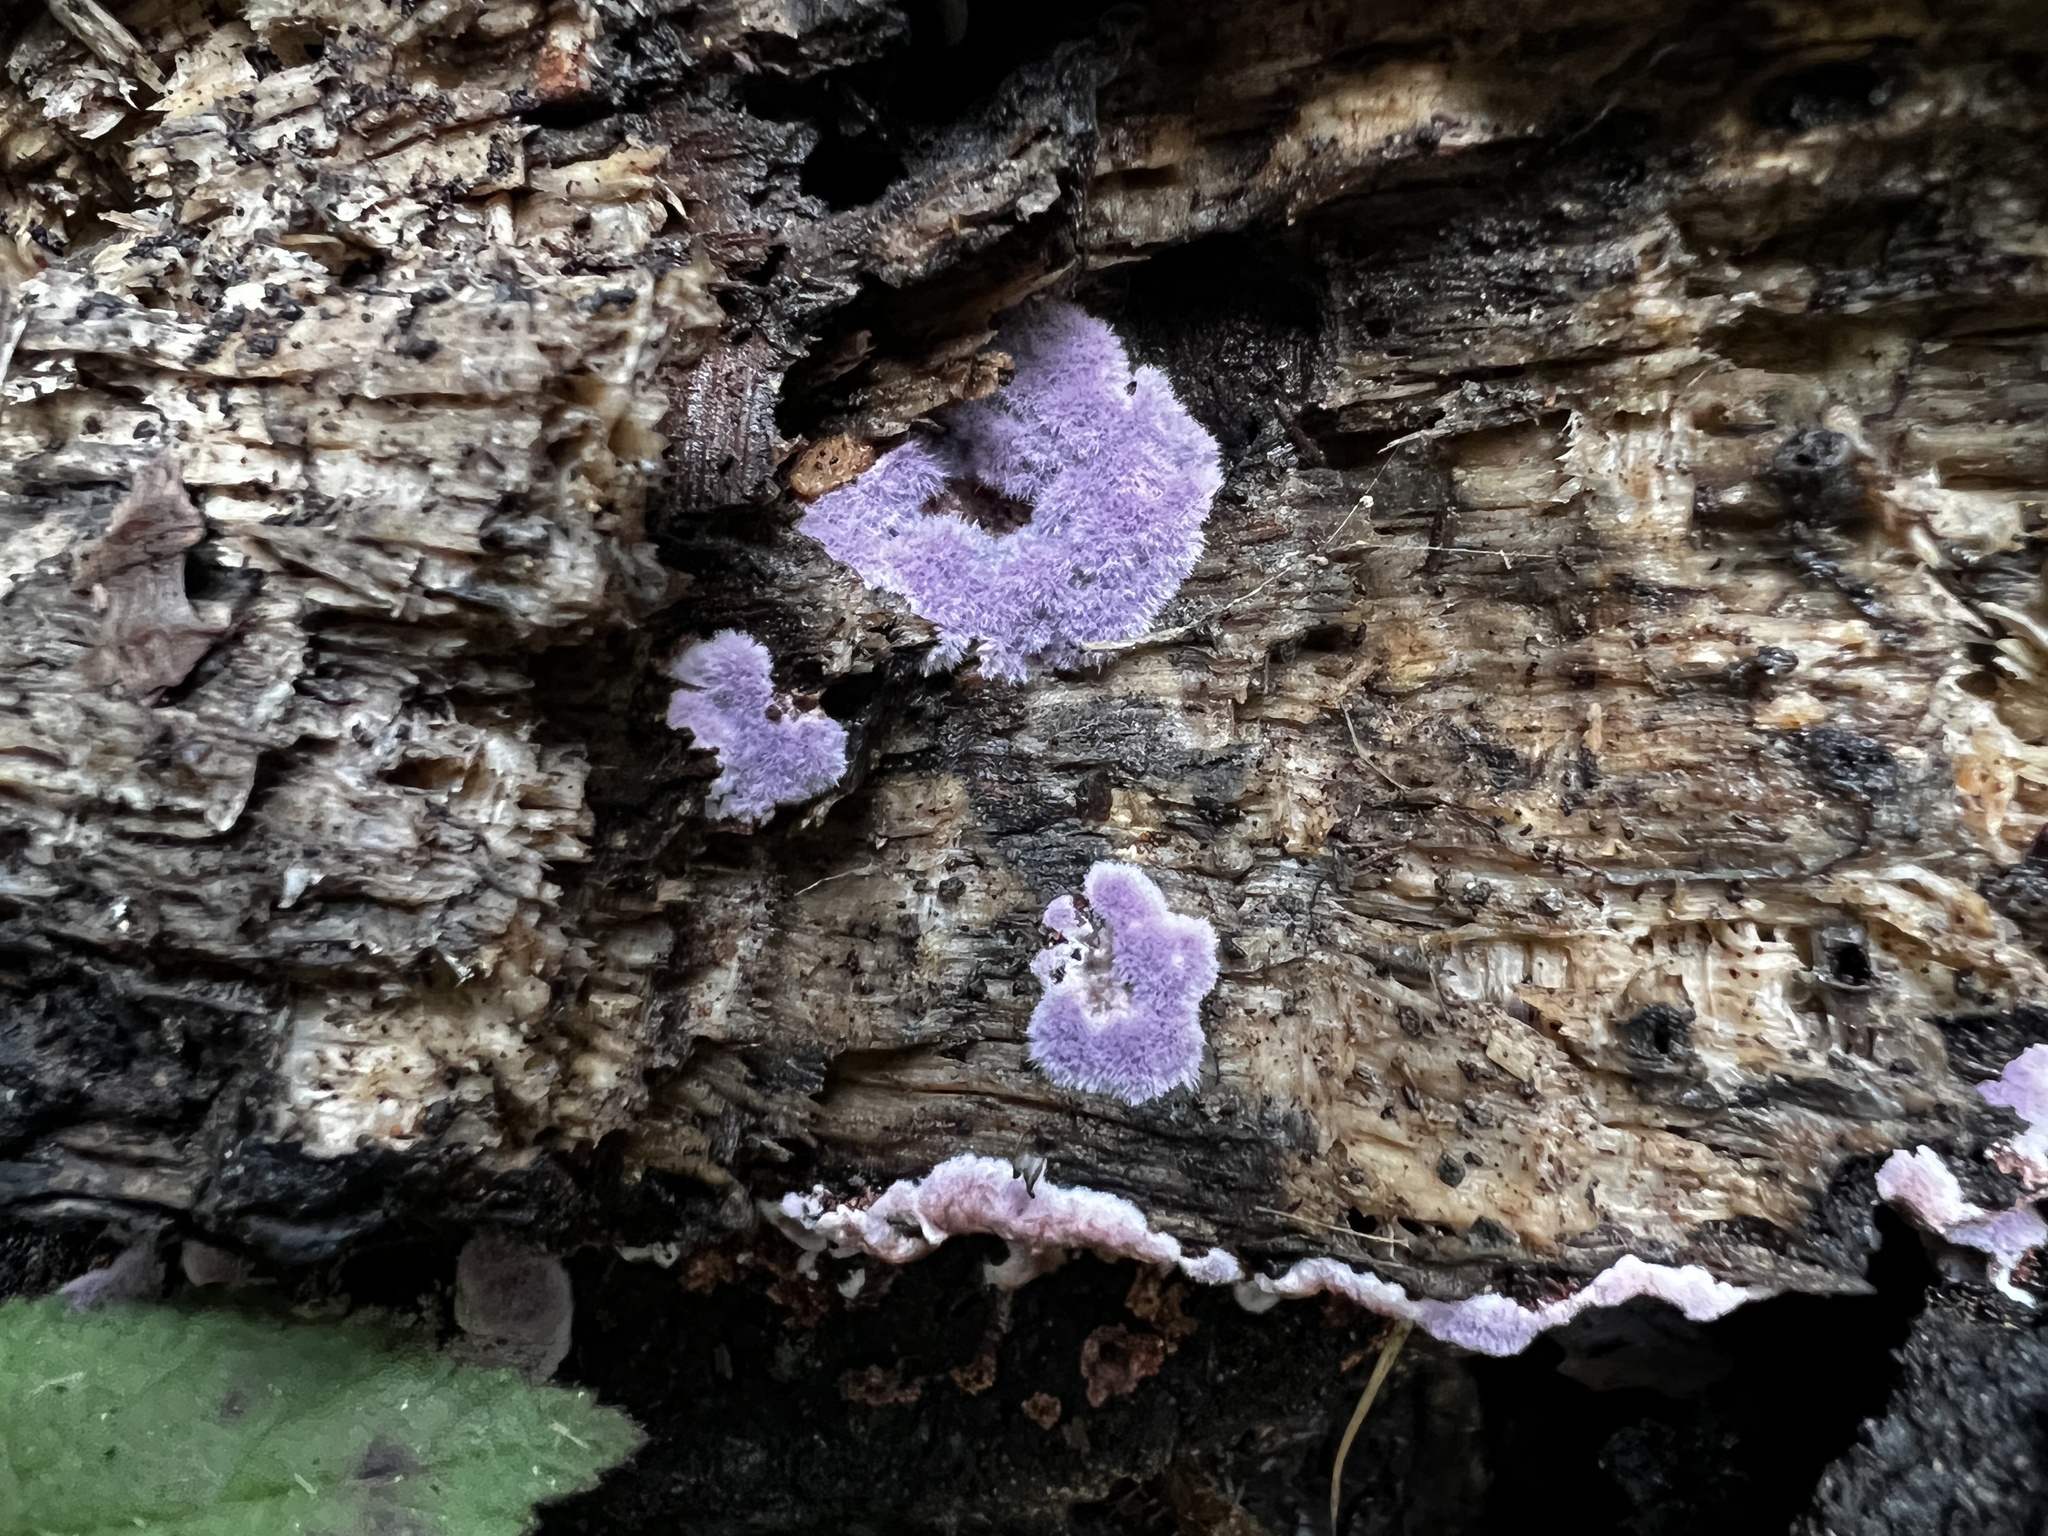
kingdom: Fungi
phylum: Basidiomycota
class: Agaricomycetes
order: Corticiales
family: Punctulariaceae
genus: Punctularia
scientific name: Punctularia atropurpurascens
